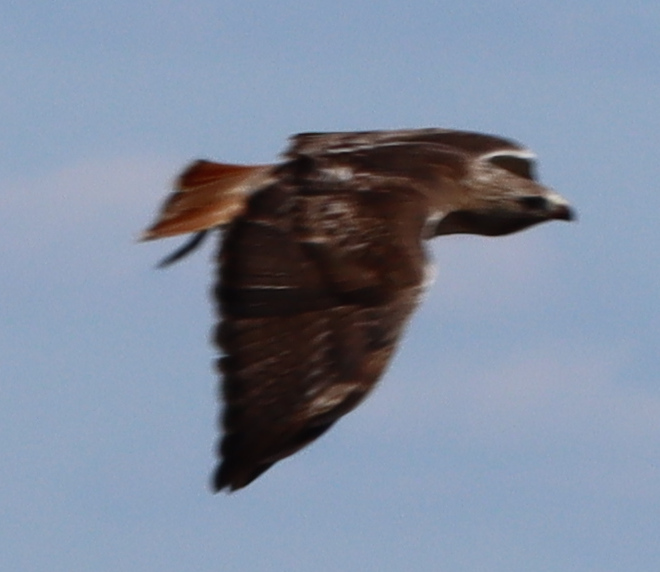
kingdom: Animalia
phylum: Chordata
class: Aves
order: Accipitriformes
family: Accipitridae
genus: Buteo
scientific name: Buteo jamaicensis
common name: Red-tailed hawk
